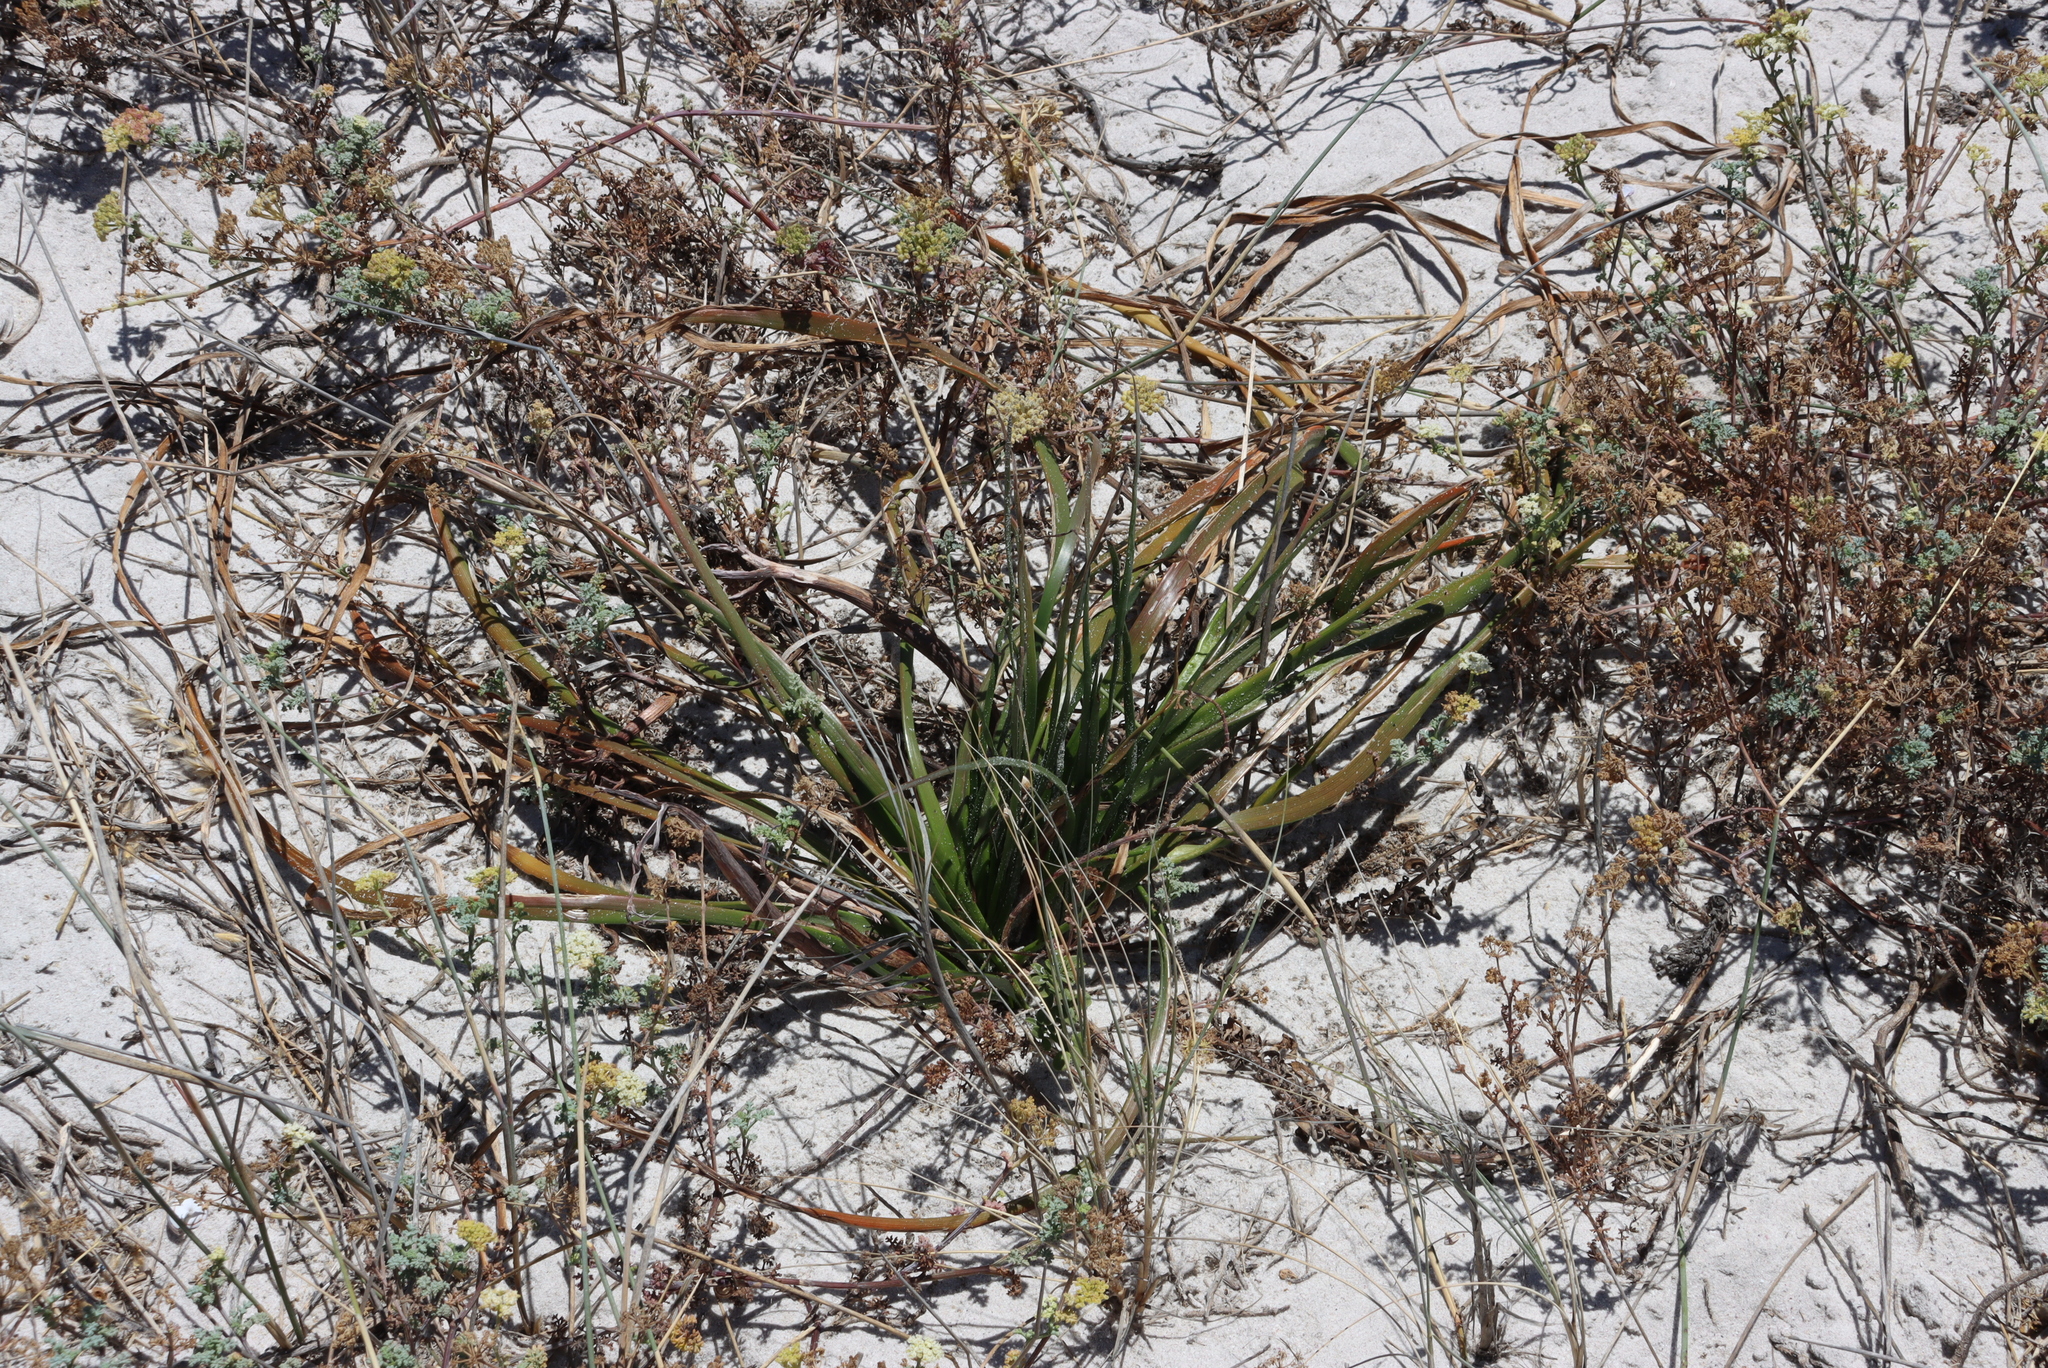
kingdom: Plantae
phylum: Tracheophyta
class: Liliopsida
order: Asparagales
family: Asphodelaceae
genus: Trachyandra
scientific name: Trachyandra revoluta
